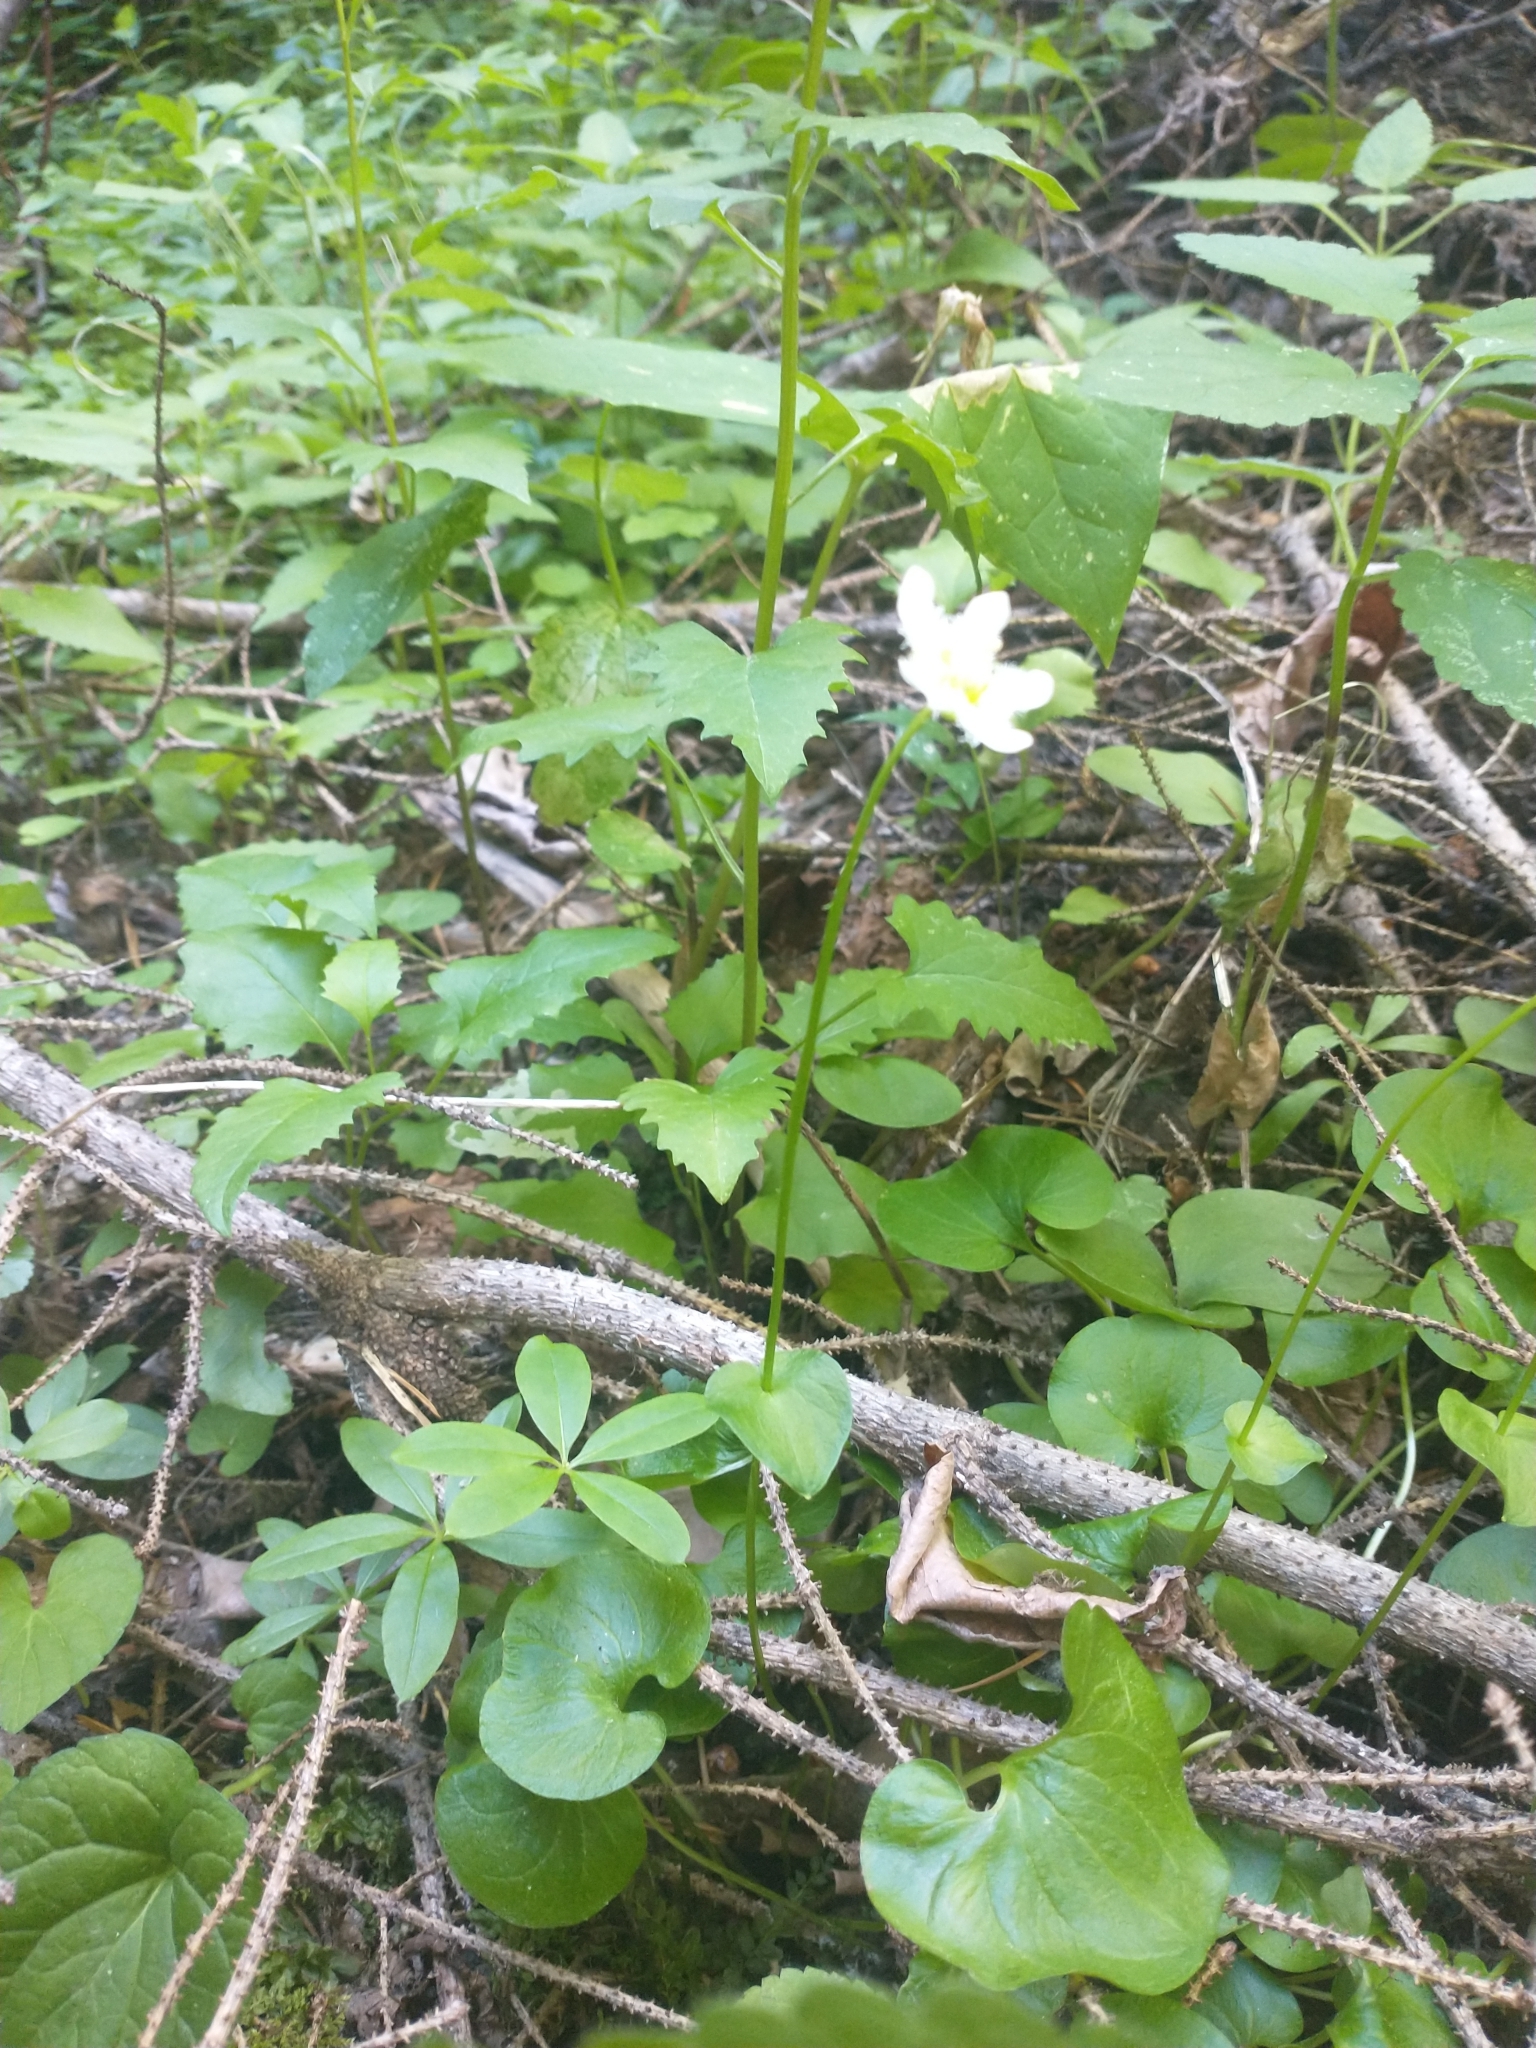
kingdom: Plantae
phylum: Tracheophyta
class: Magnoliopsida
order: Celastrales
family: Parnassiaceae
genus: Parnassia
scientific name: Parnassia fimbriata
